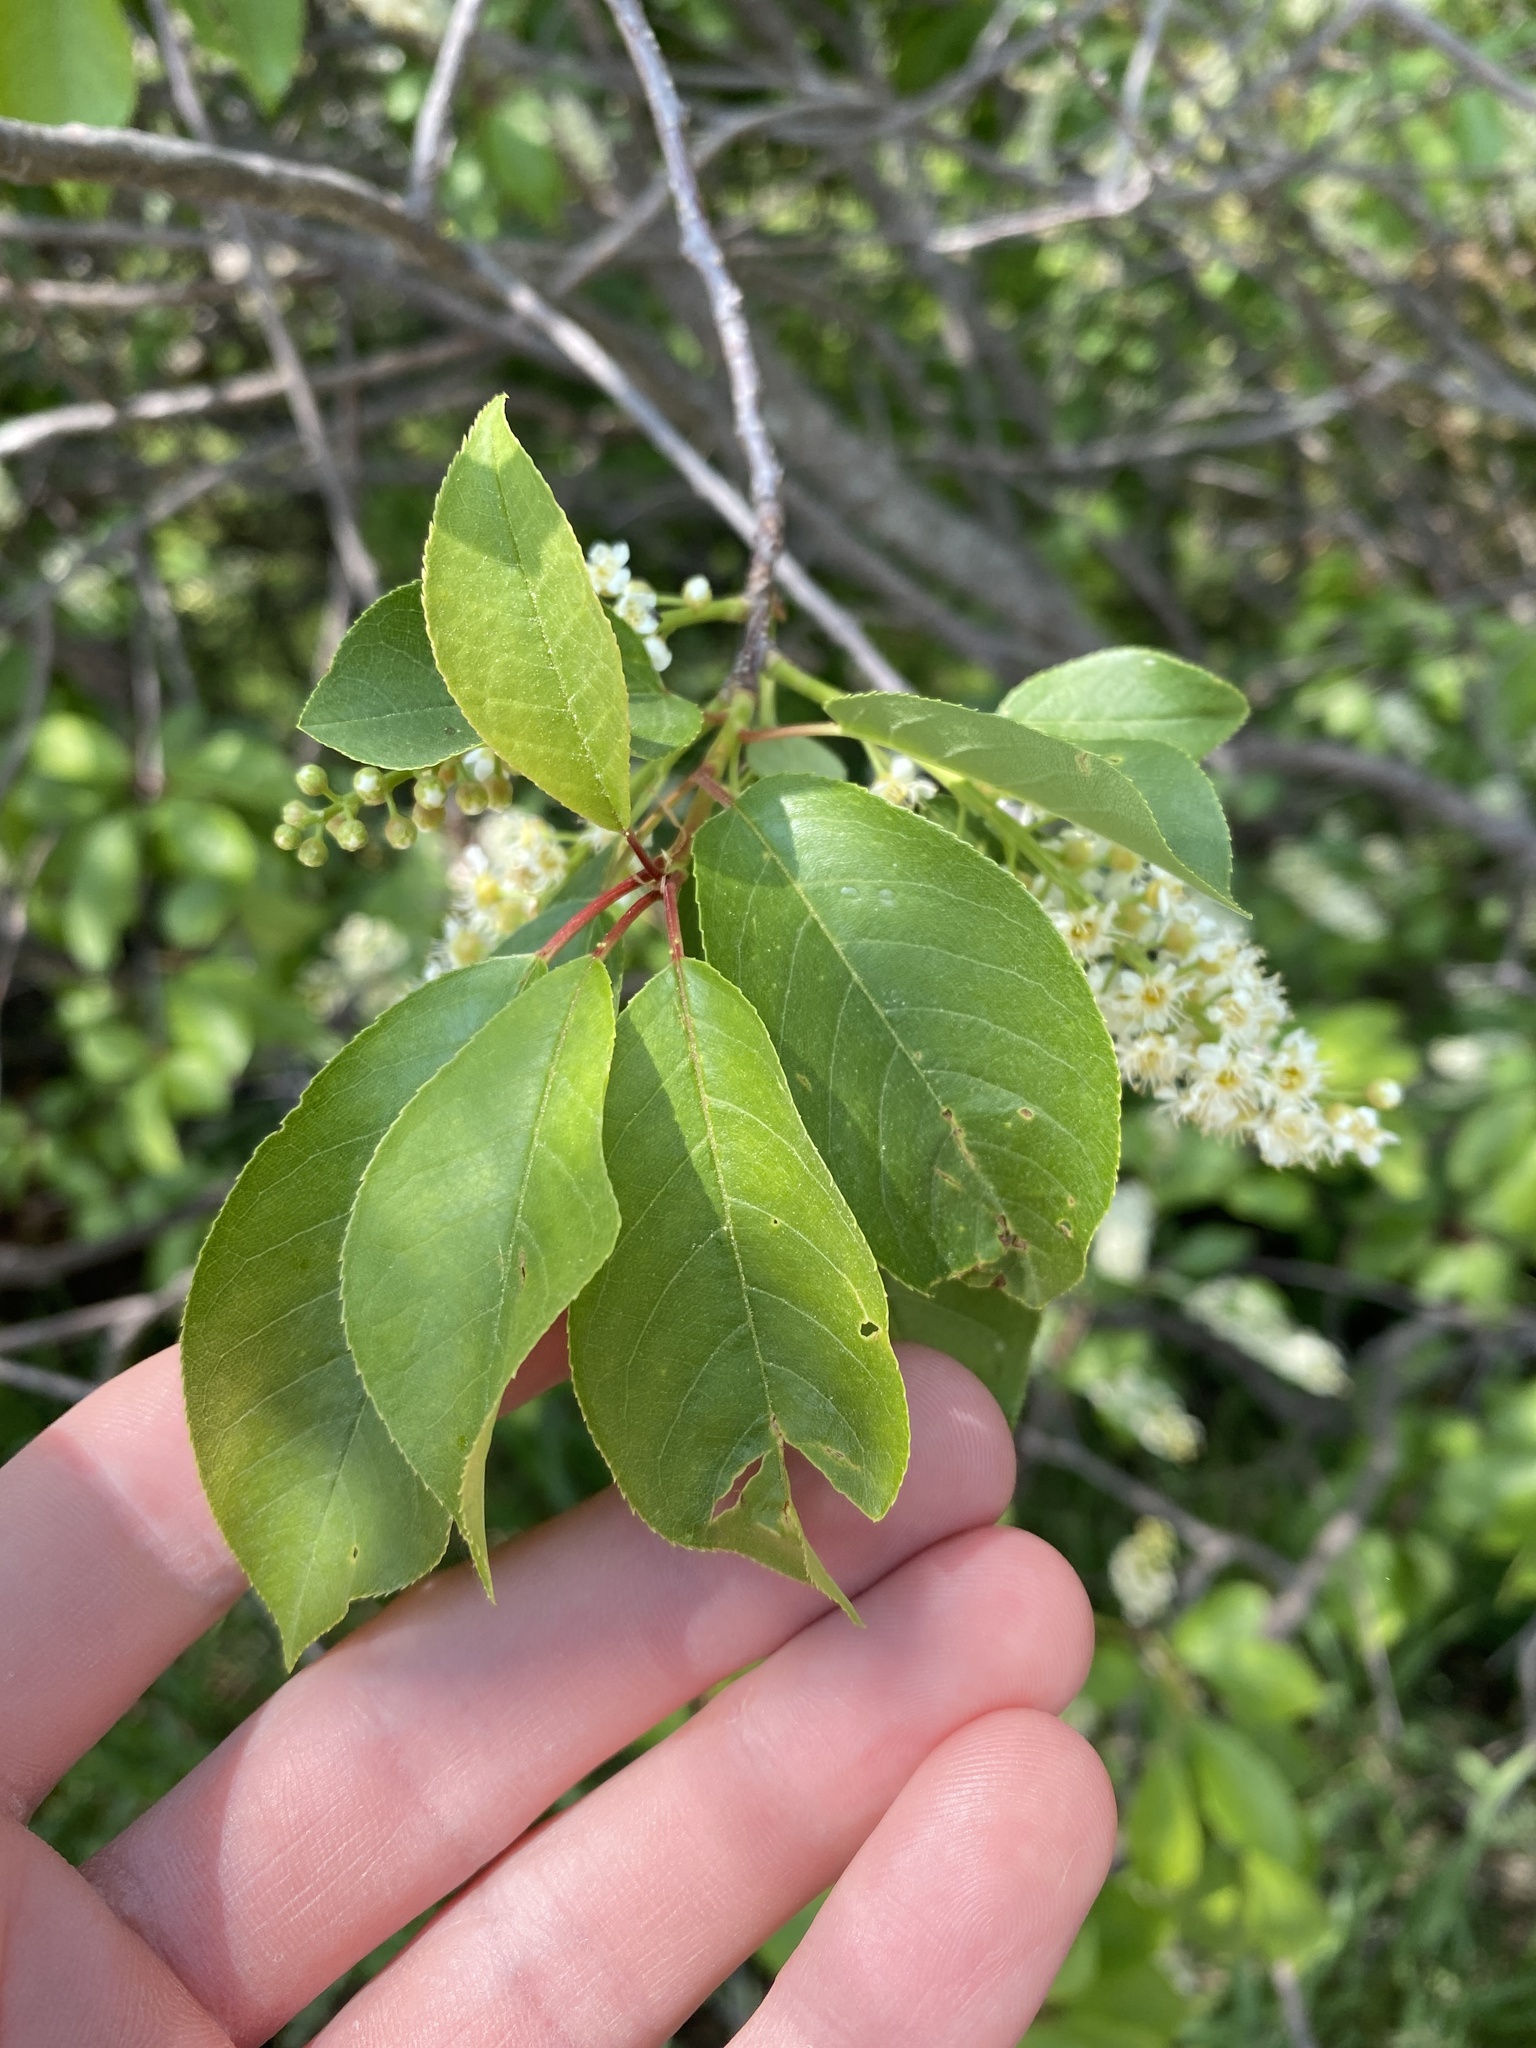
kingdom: Plantae
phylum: Tracheophyta
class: Magnoliopsida
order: Rosales
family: Rosaceae
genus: Prunus
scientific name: Prunus virginiana
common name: Chokecherry
